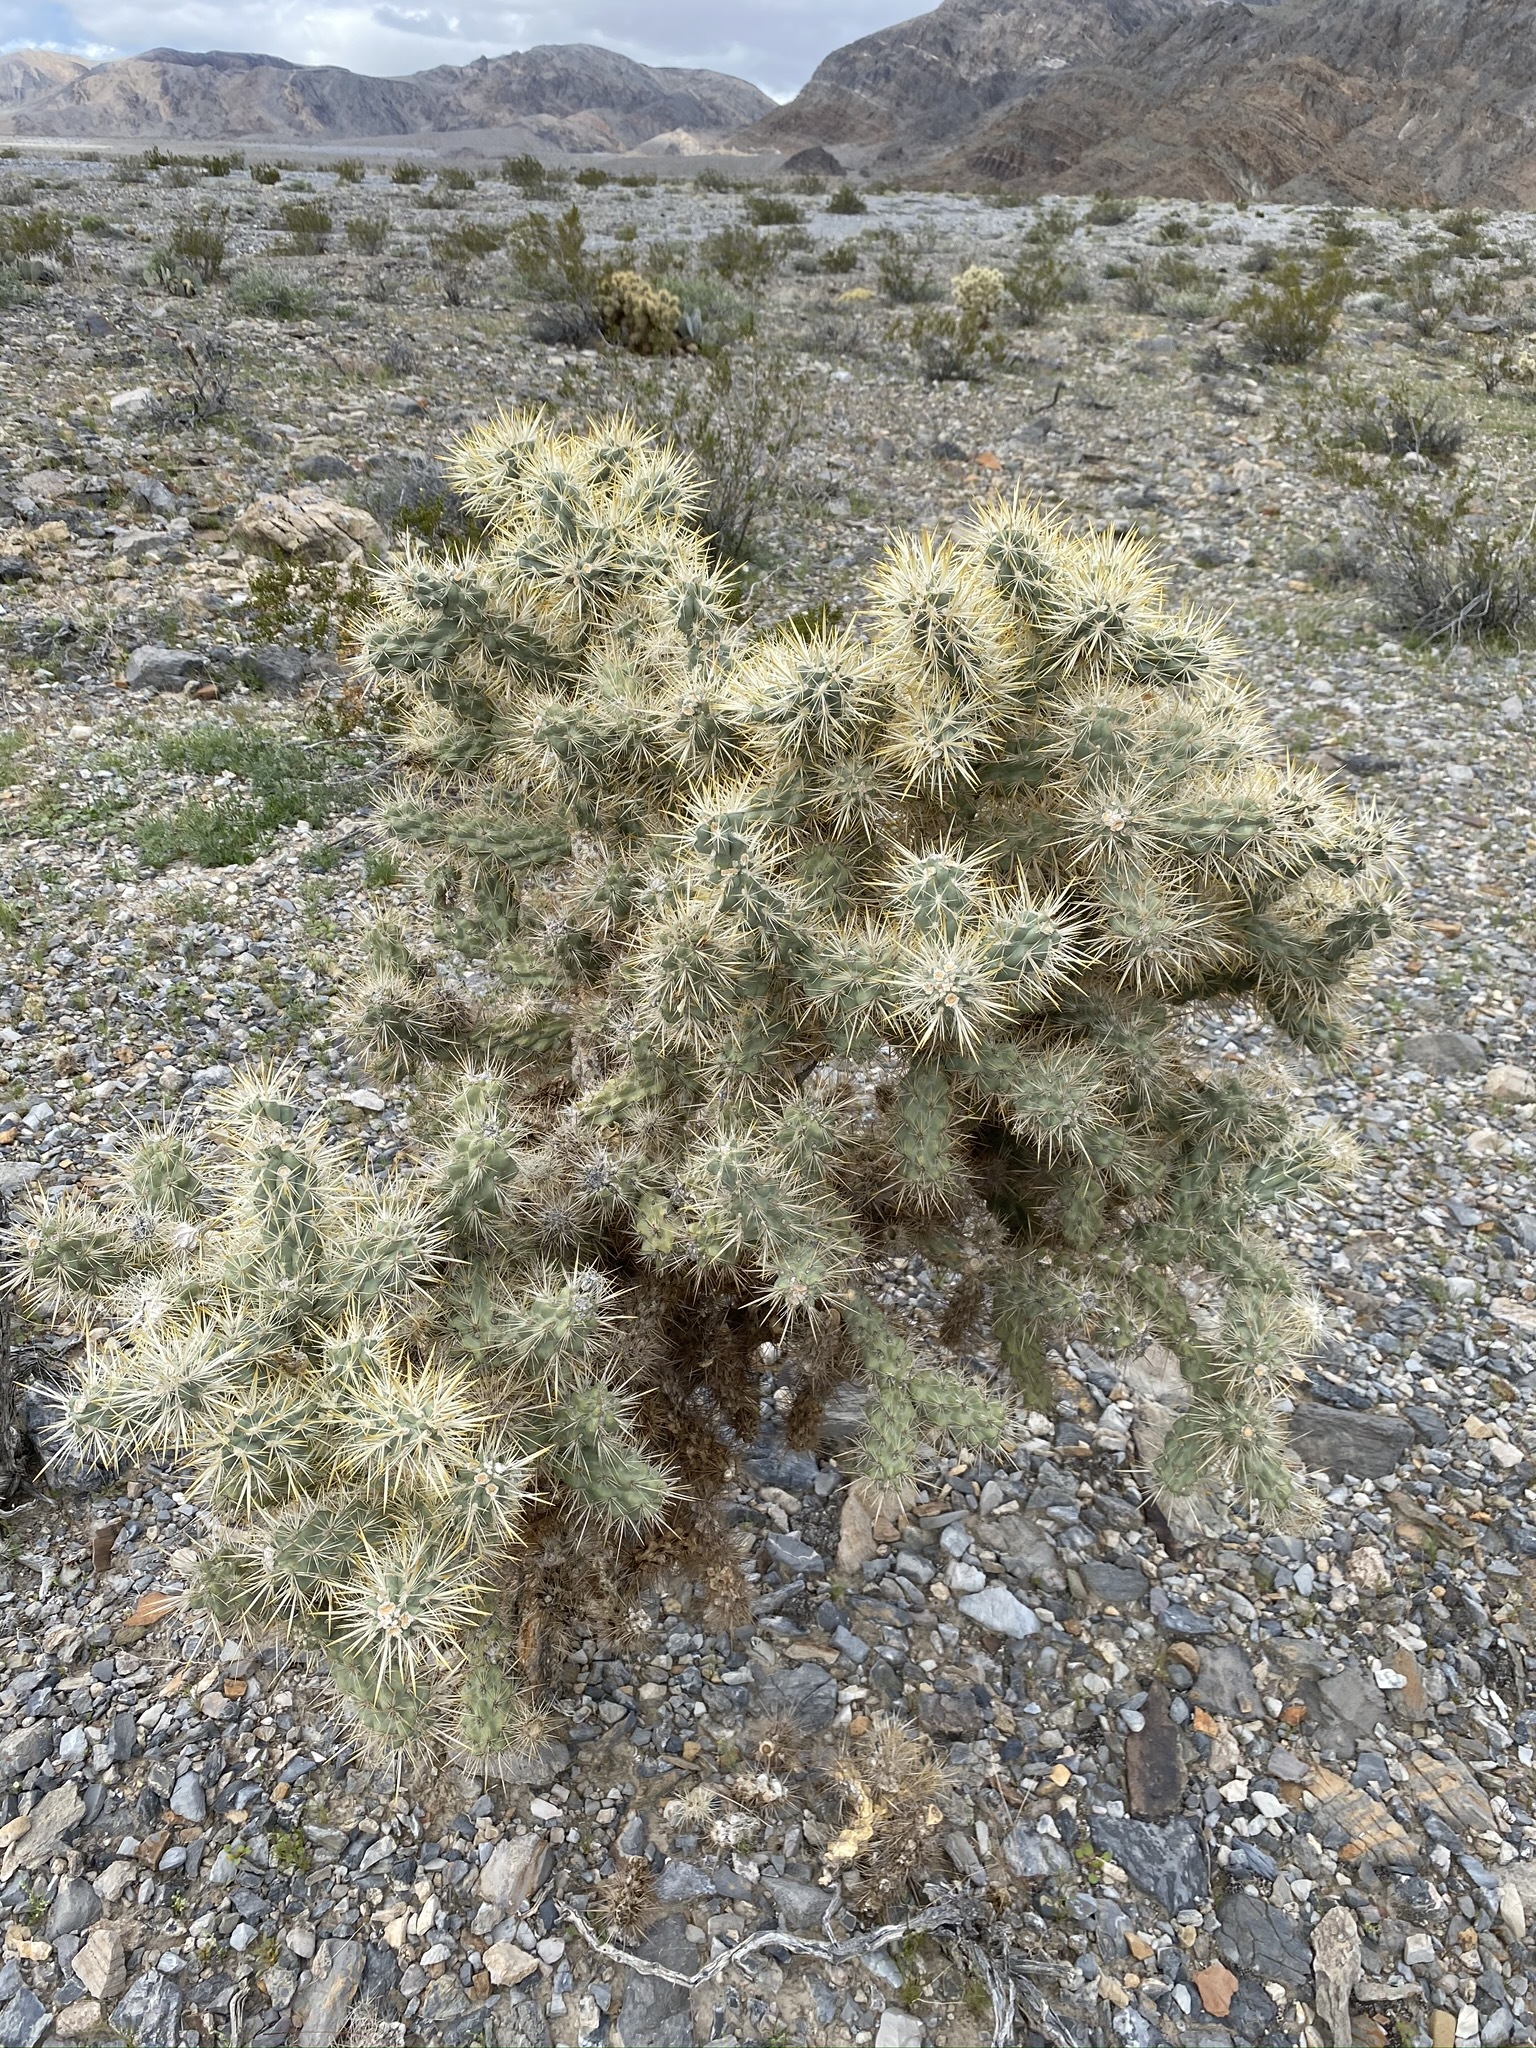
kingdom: Plantae
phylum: Tracheophyta
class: Magnoliopsida
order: Caryophyllales
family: Cactaceae
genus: Cylindropuntia
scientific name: Cylindropuntia echinocarpa
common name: Ground cholla
